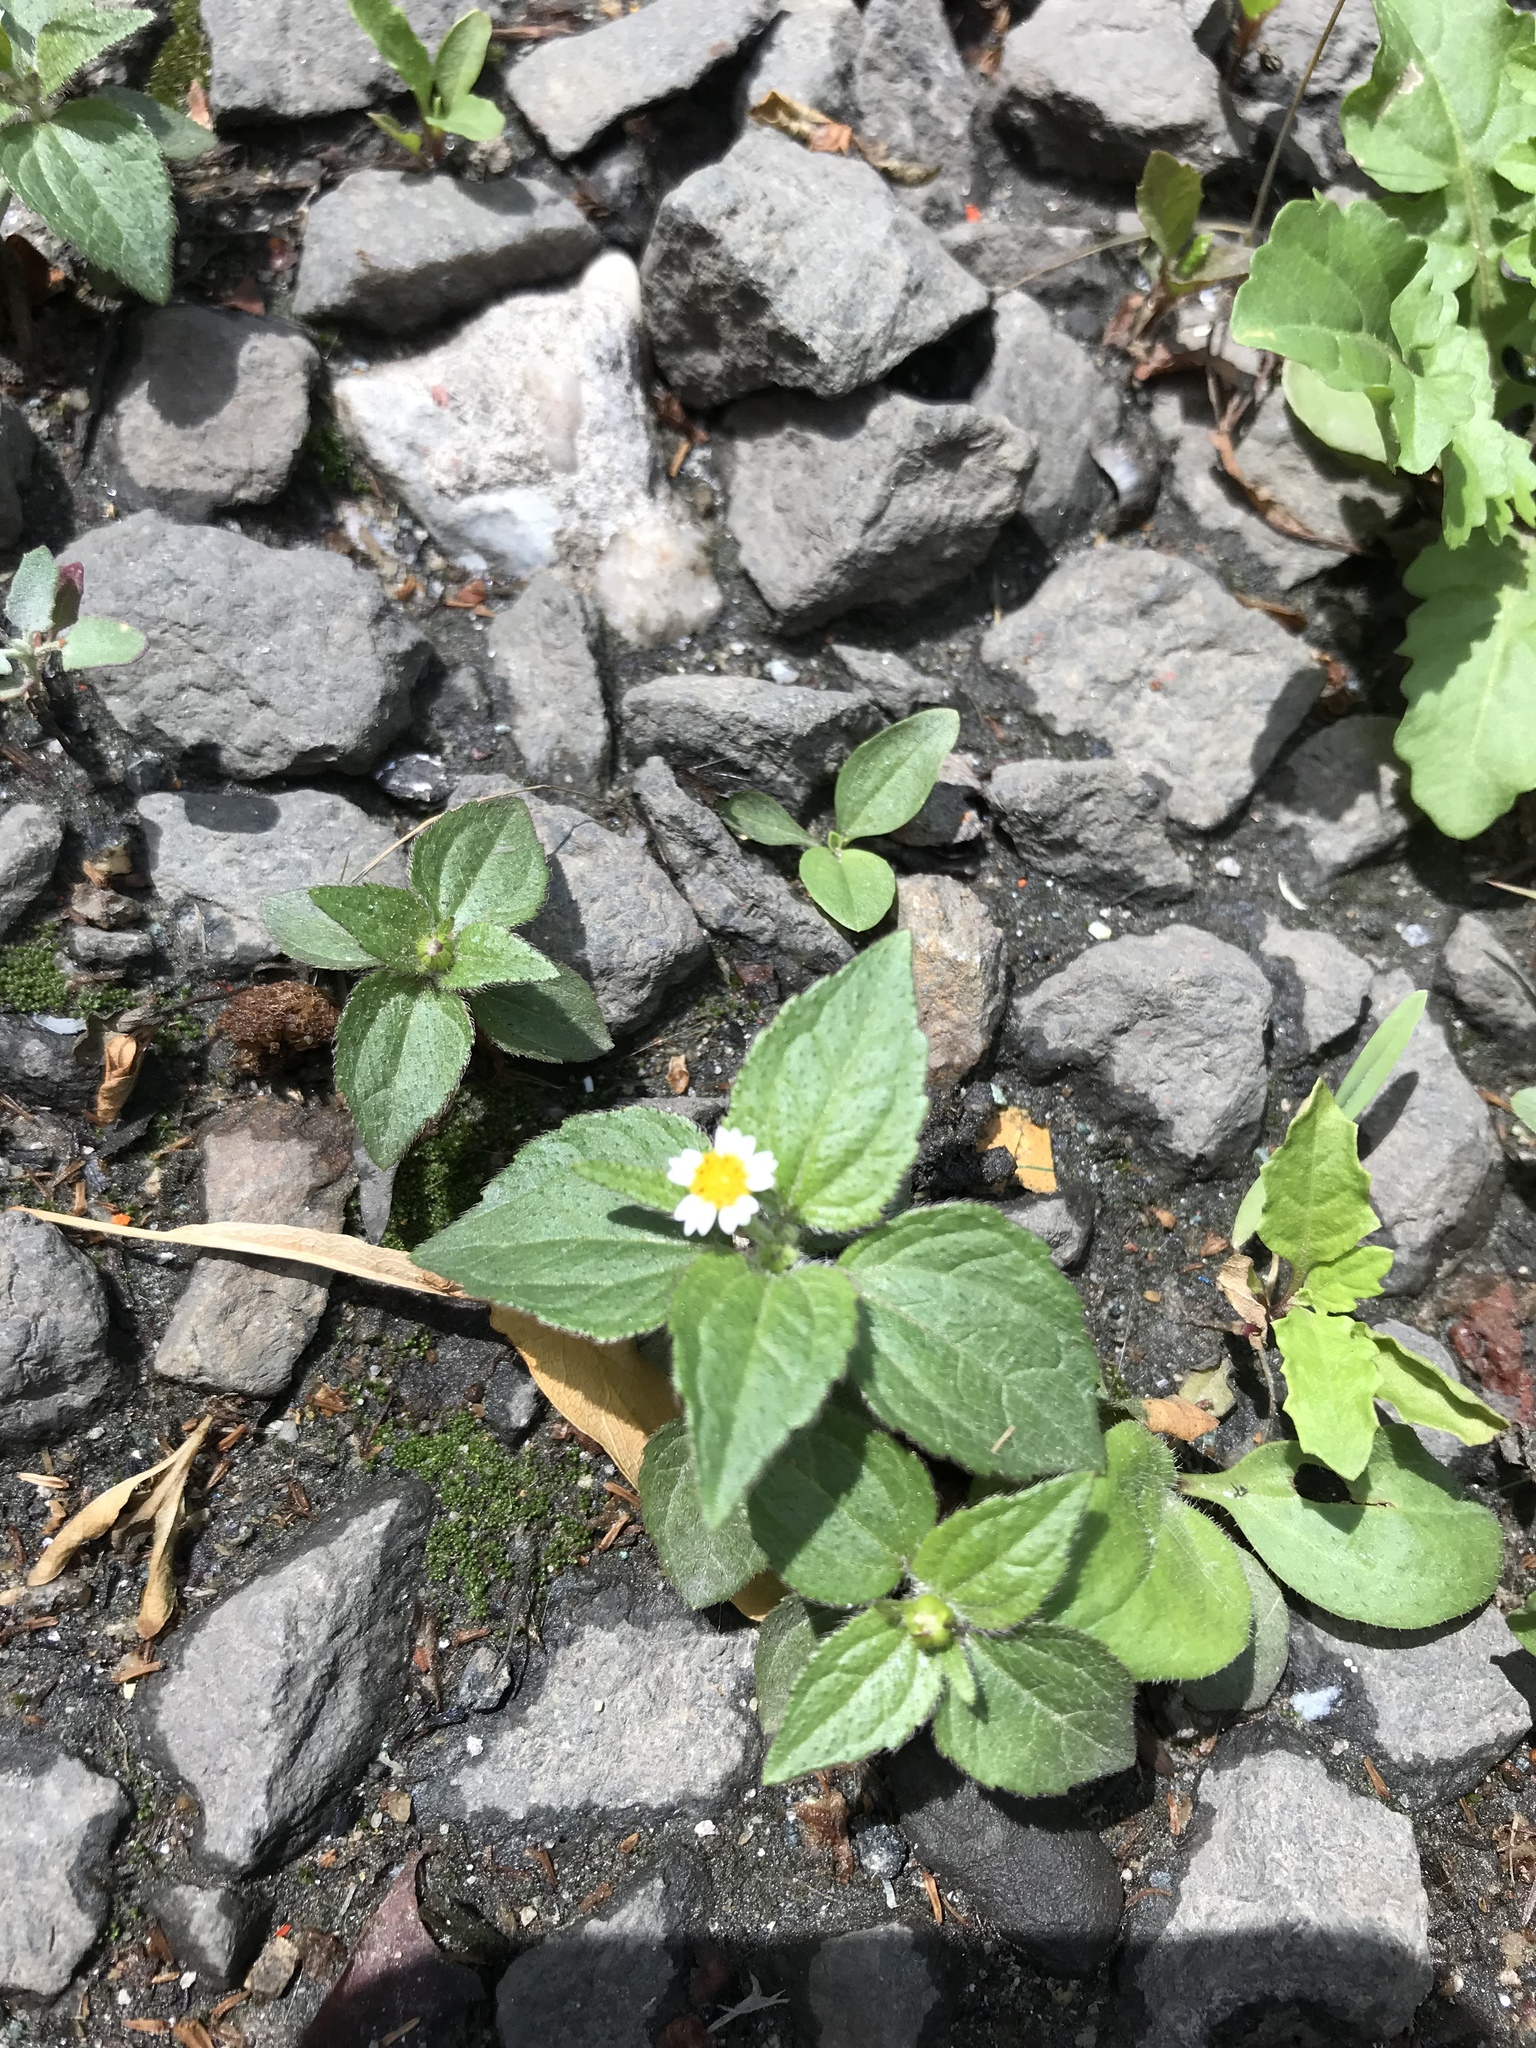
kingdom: Plantae
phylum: Tracheophyta
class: Magnoliopsida
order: Asterales
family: Asteraceae
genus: Galinsoga
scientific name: Galinsoga quadriradiata
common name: Shaggy soldier
